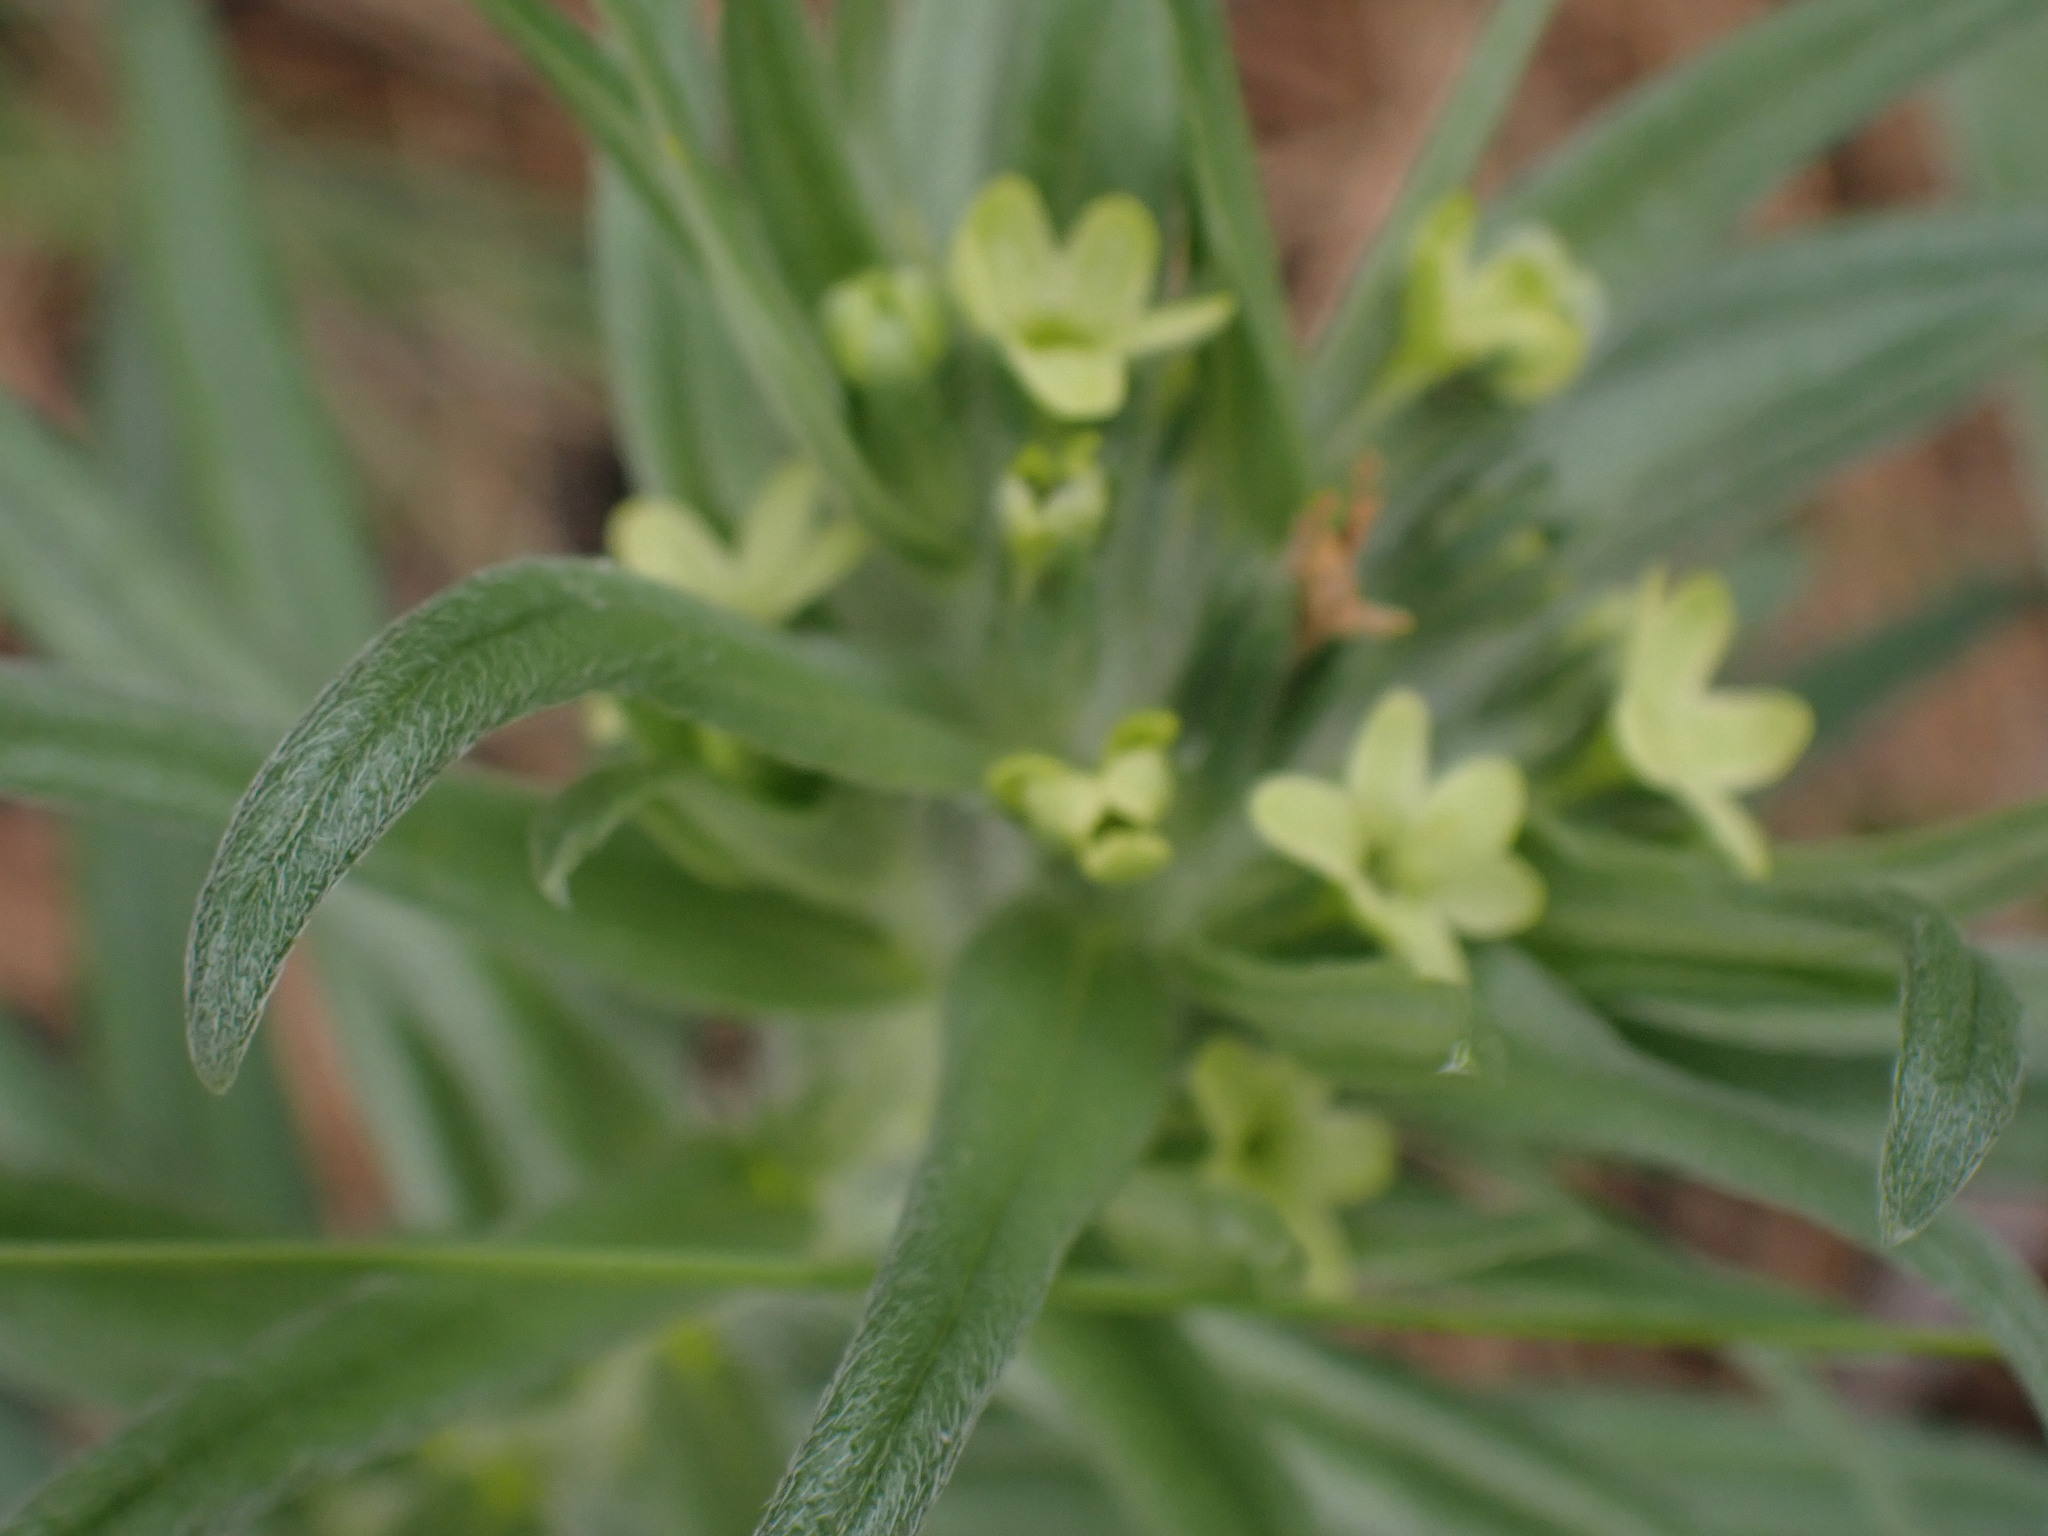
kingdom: Plantae
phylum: Tracheophyta
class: Magnoliopsida
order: Boraginales
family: Boraginaceae
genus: Lithospermum
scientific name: Lithospermum ruderale
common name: Western gromwell
